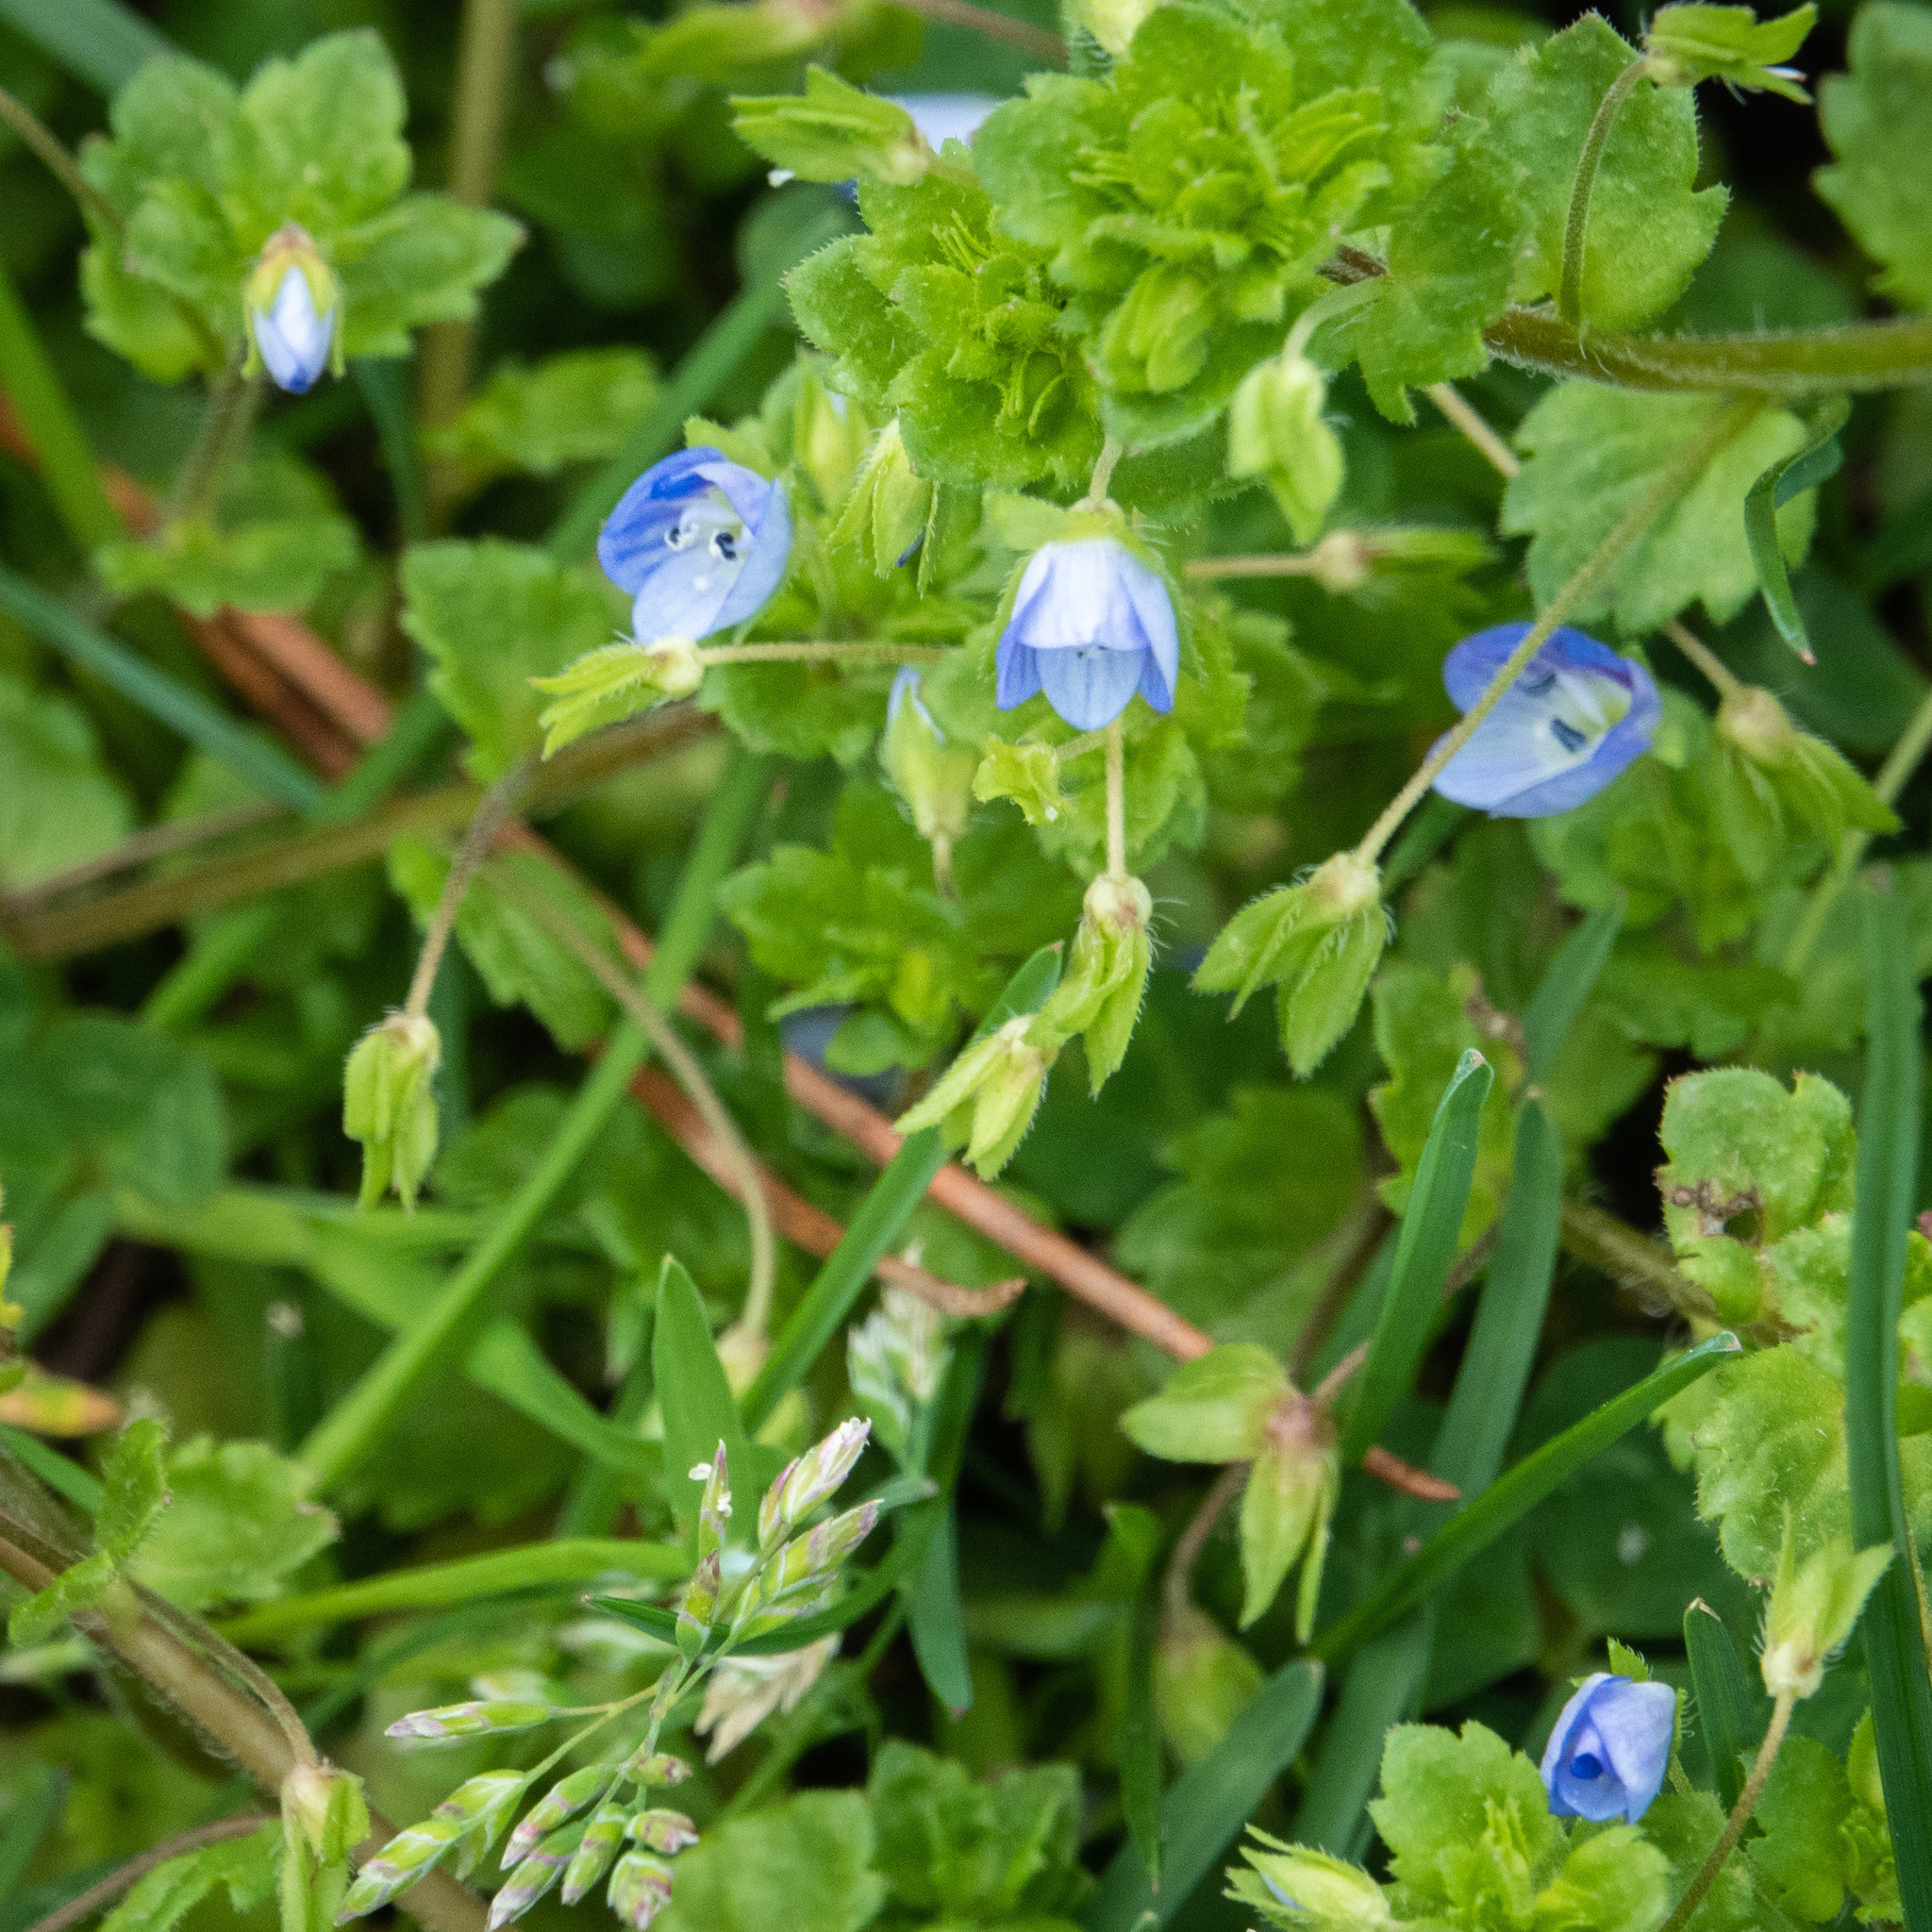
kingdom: Plantae
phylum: Tracheophyta
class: Magnoliopsida
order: Lamiales
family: Plantaginaceae
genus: Veronica
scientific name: Veronica persica
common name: Common field-speedwell
